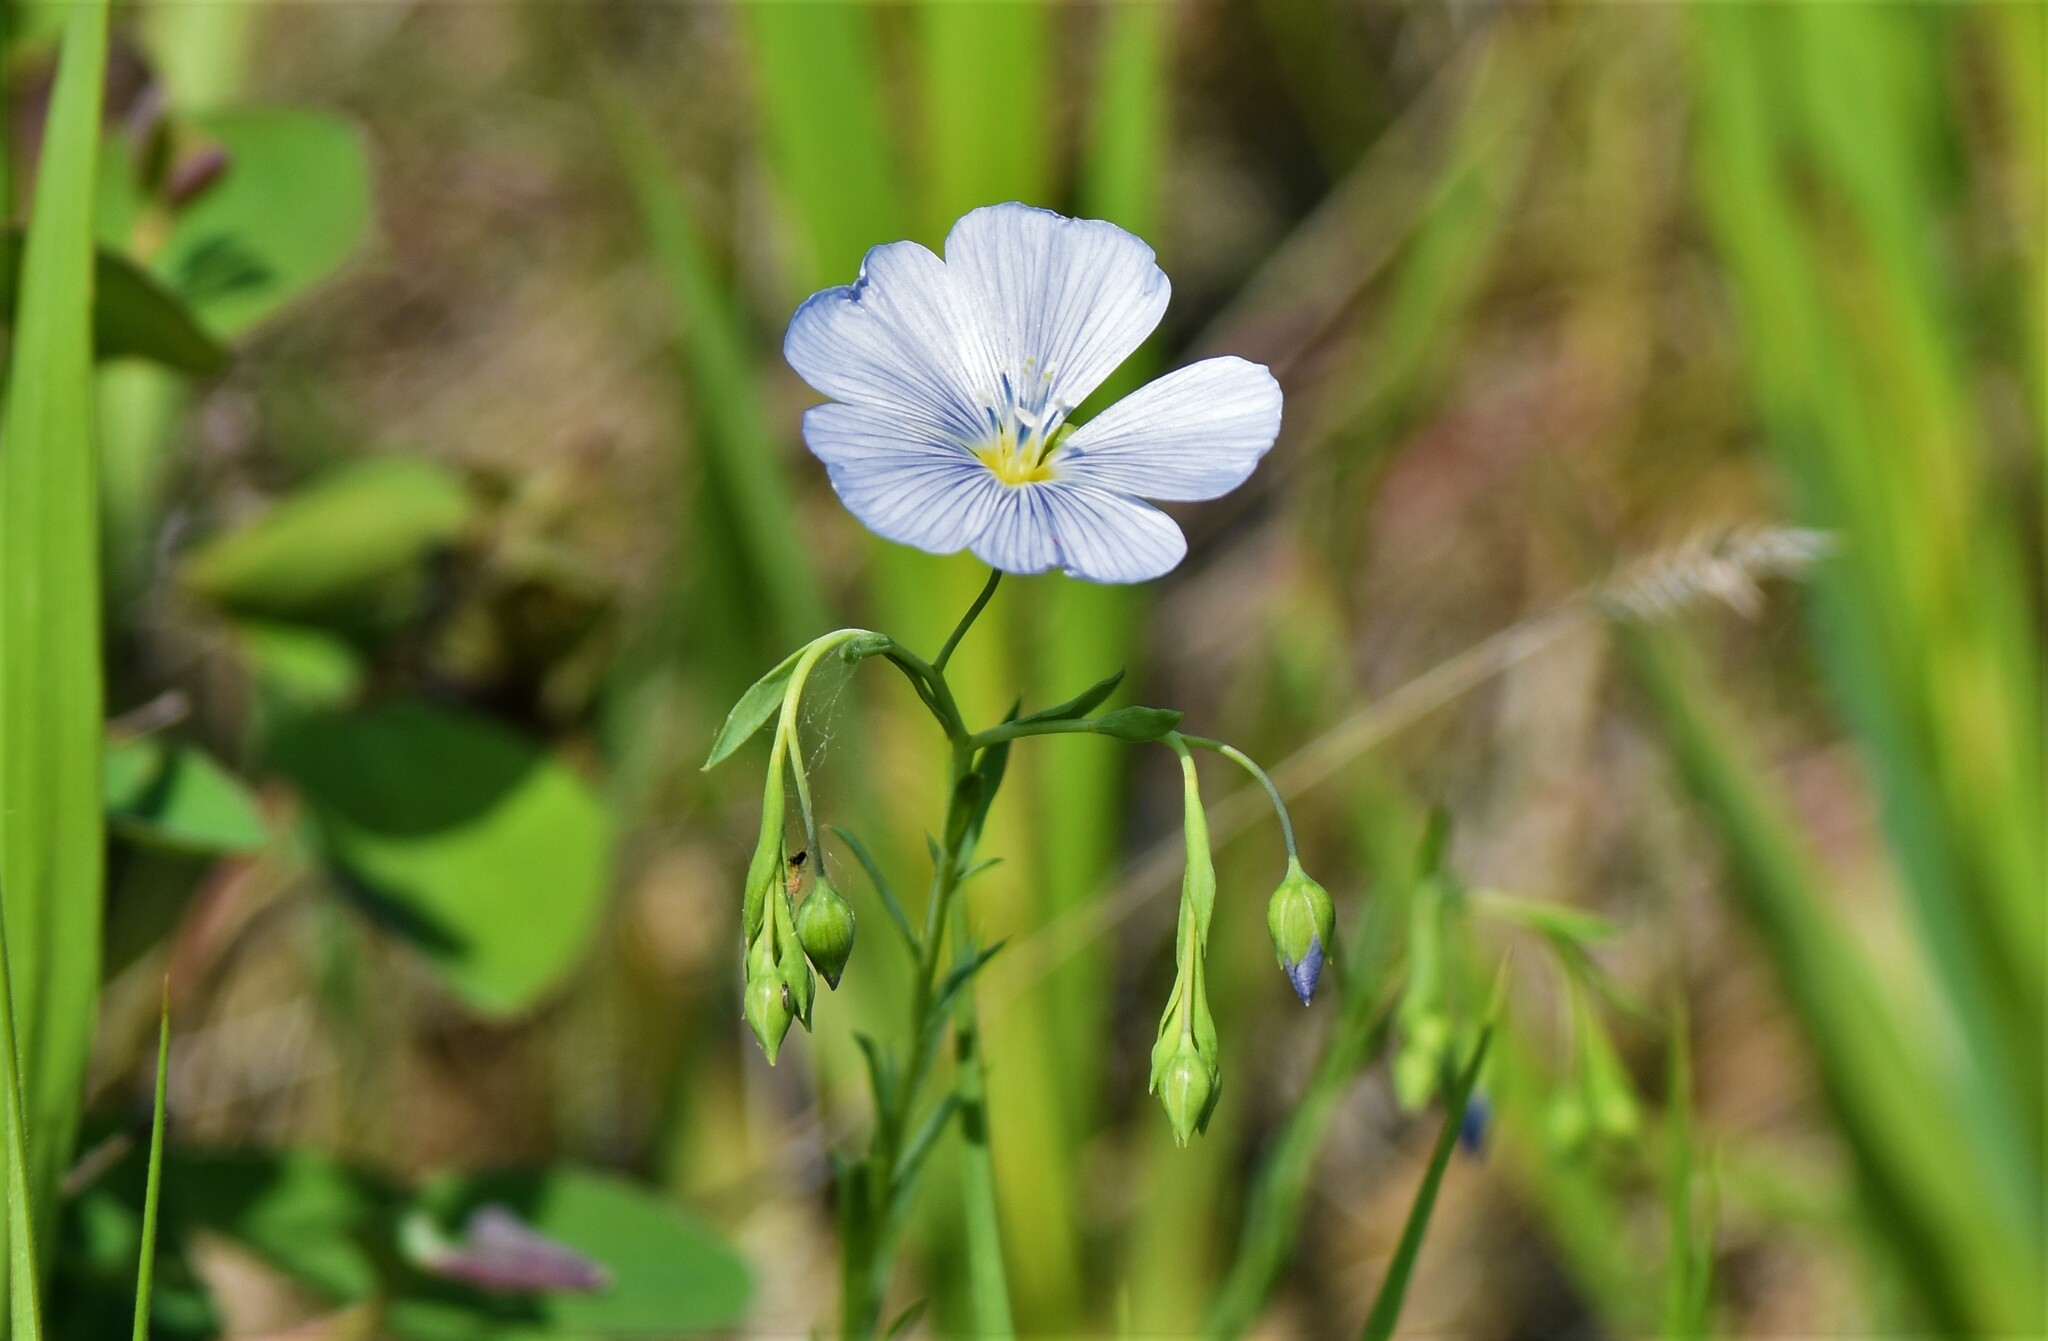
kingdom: Plantae
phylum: Tracheophyta
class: Magnoliopsida
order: Malpighiales
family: Linaceae
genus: Linum
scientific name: Linum lewisii
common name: Prairie flax
